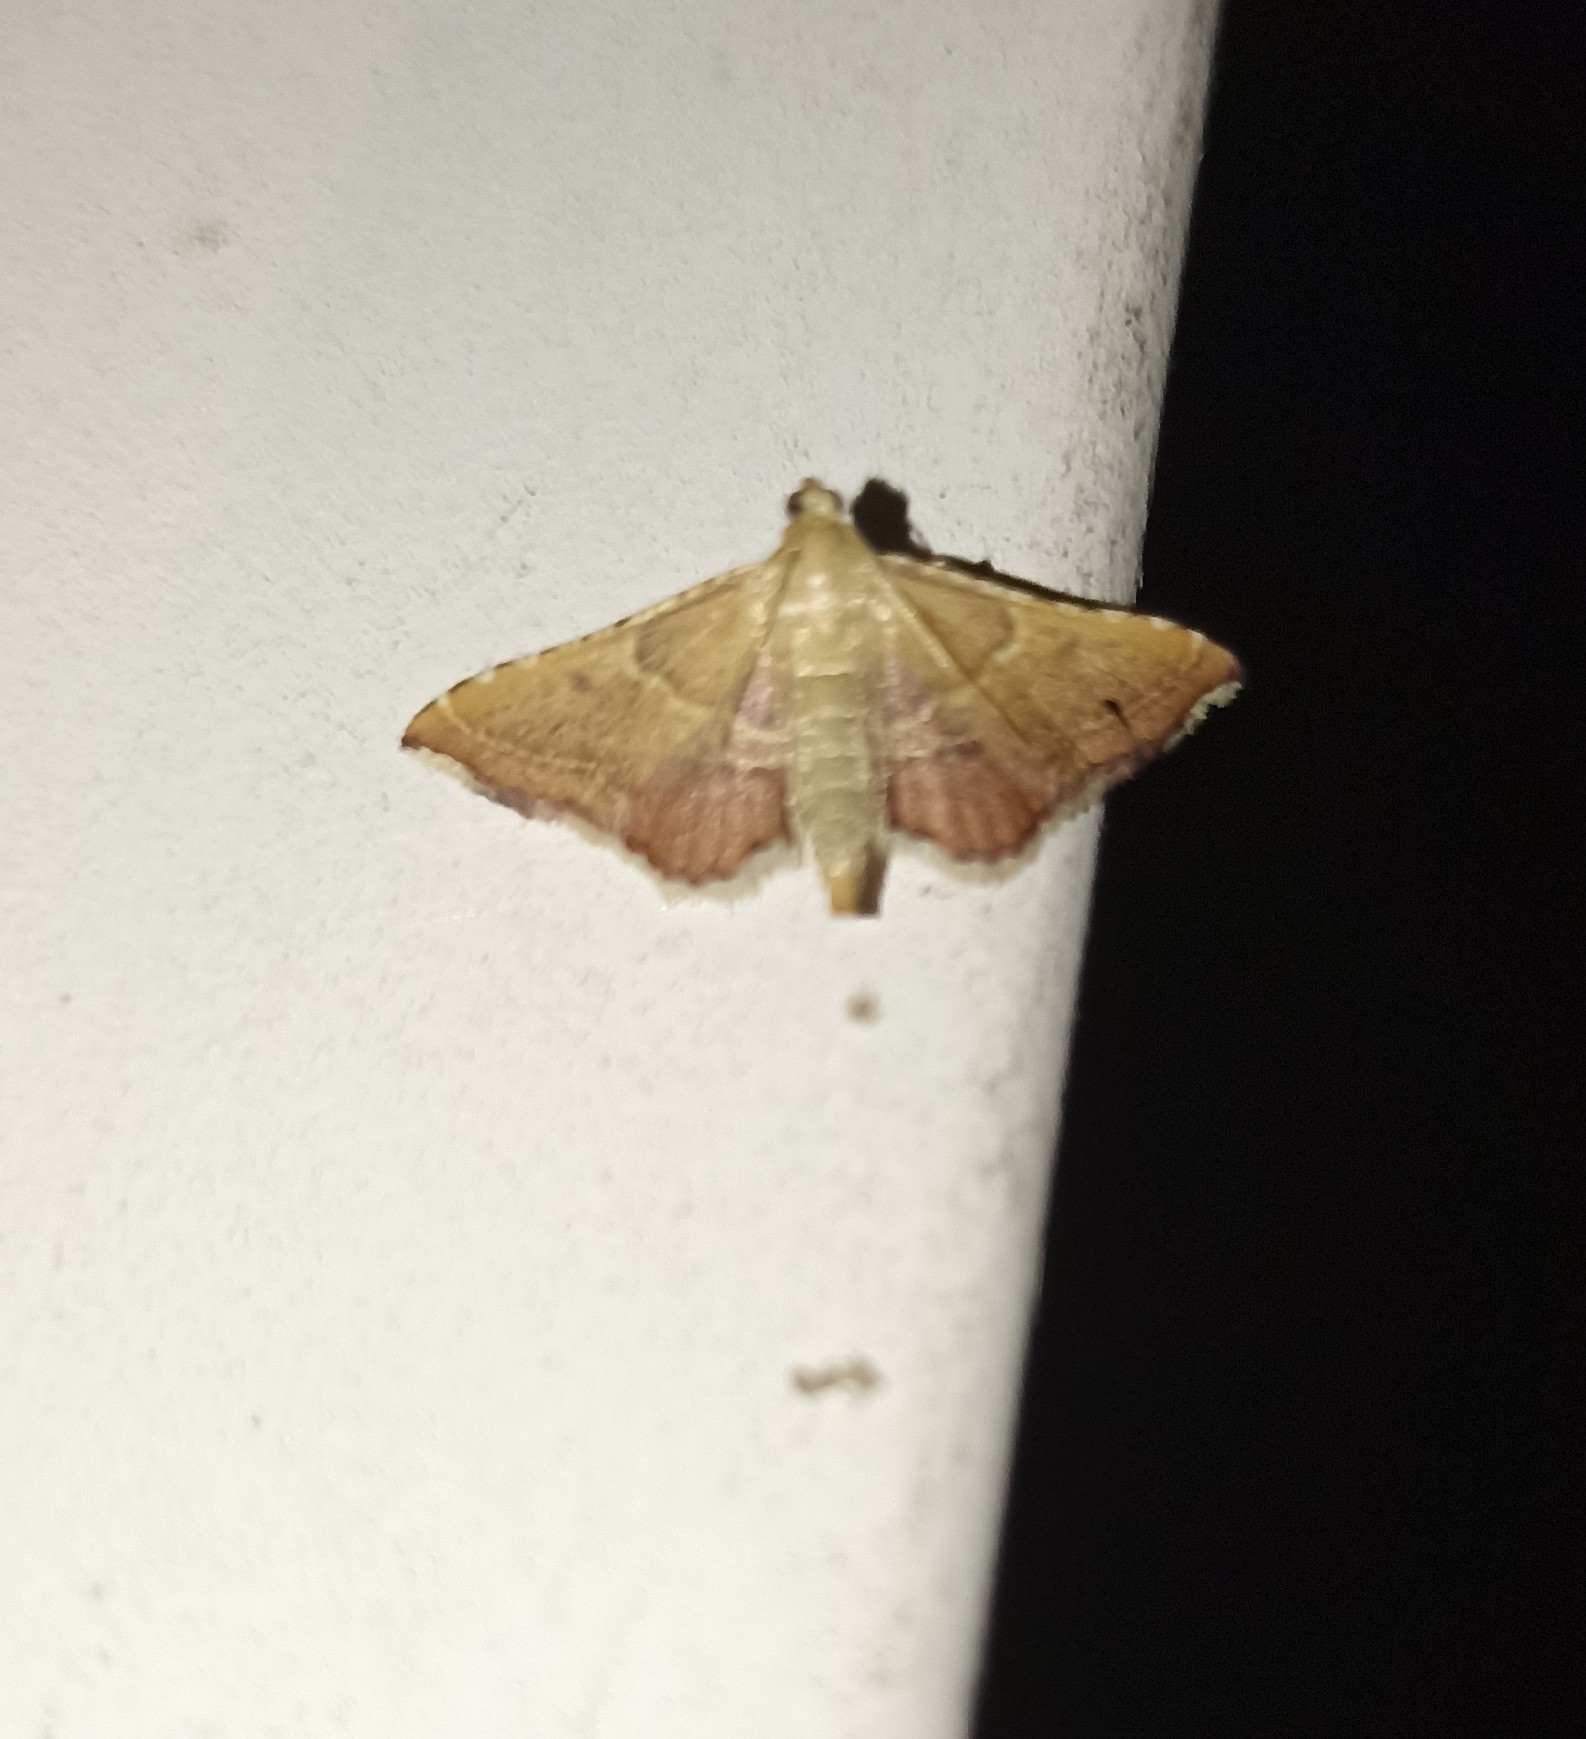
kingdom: Animalia
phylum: Arthropoda
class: Insecta
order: Lepidoptera
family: Pyralidae
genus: Endotricha
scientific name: Endotricha flammealis
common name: Rosy tabby
